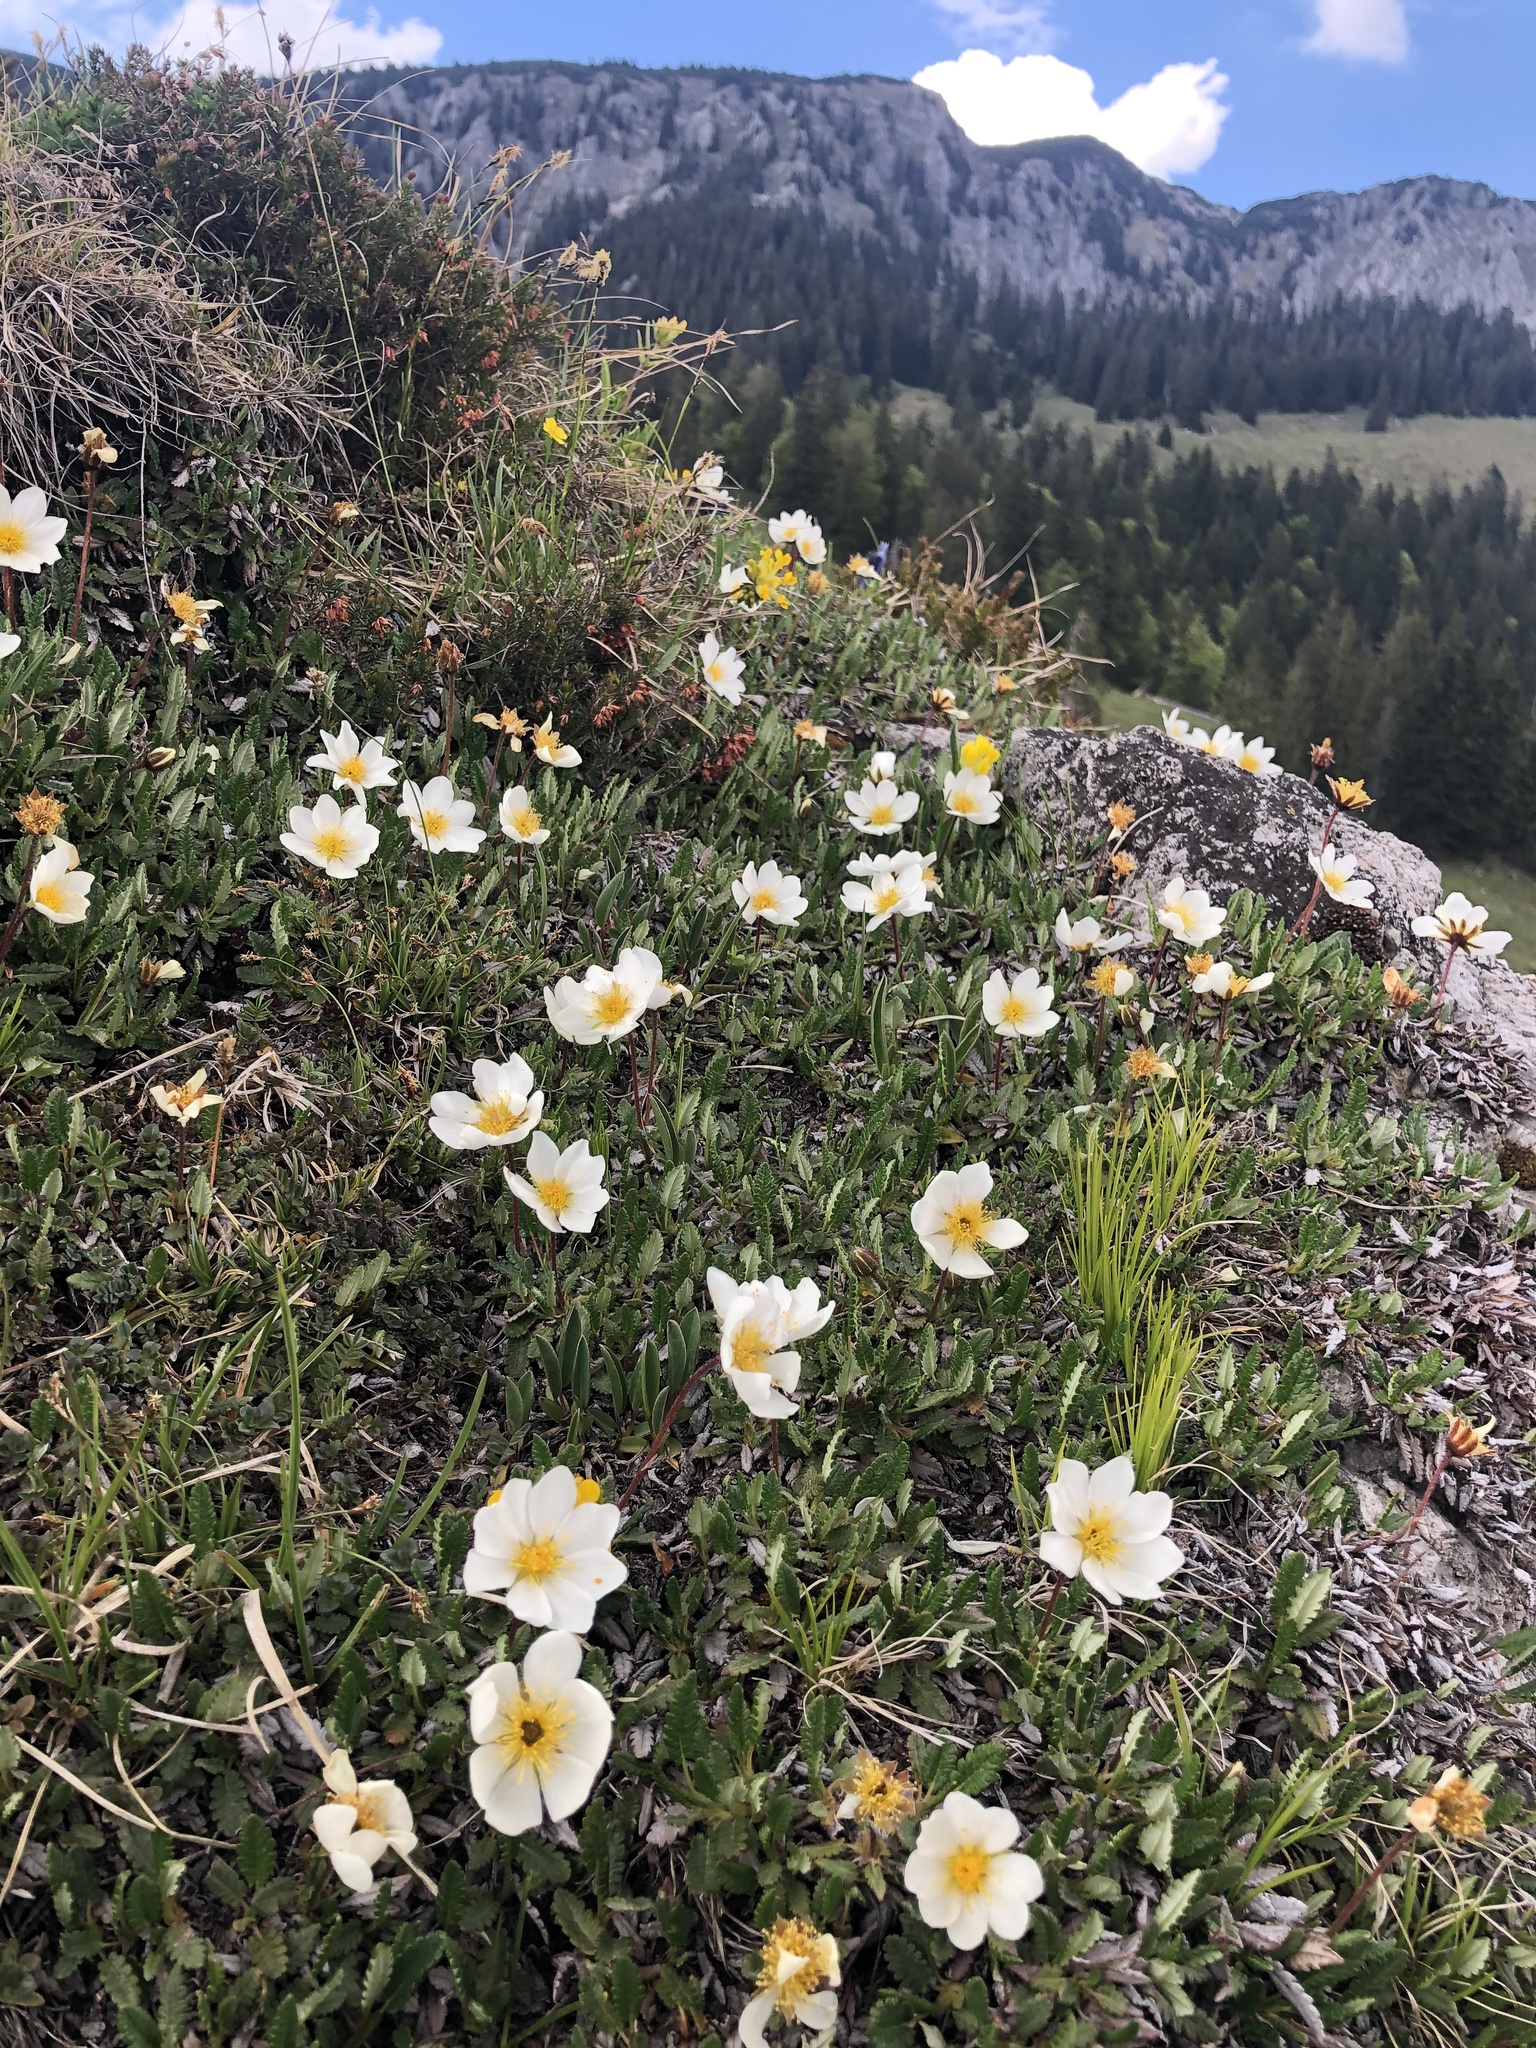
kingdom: Plantae
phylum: Tracheophyta
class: Magnoliopsida
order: Rosales
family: Rosaceae
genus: Dryas
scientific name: Dryas octopetala
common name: Eight-petal mountain-avens
